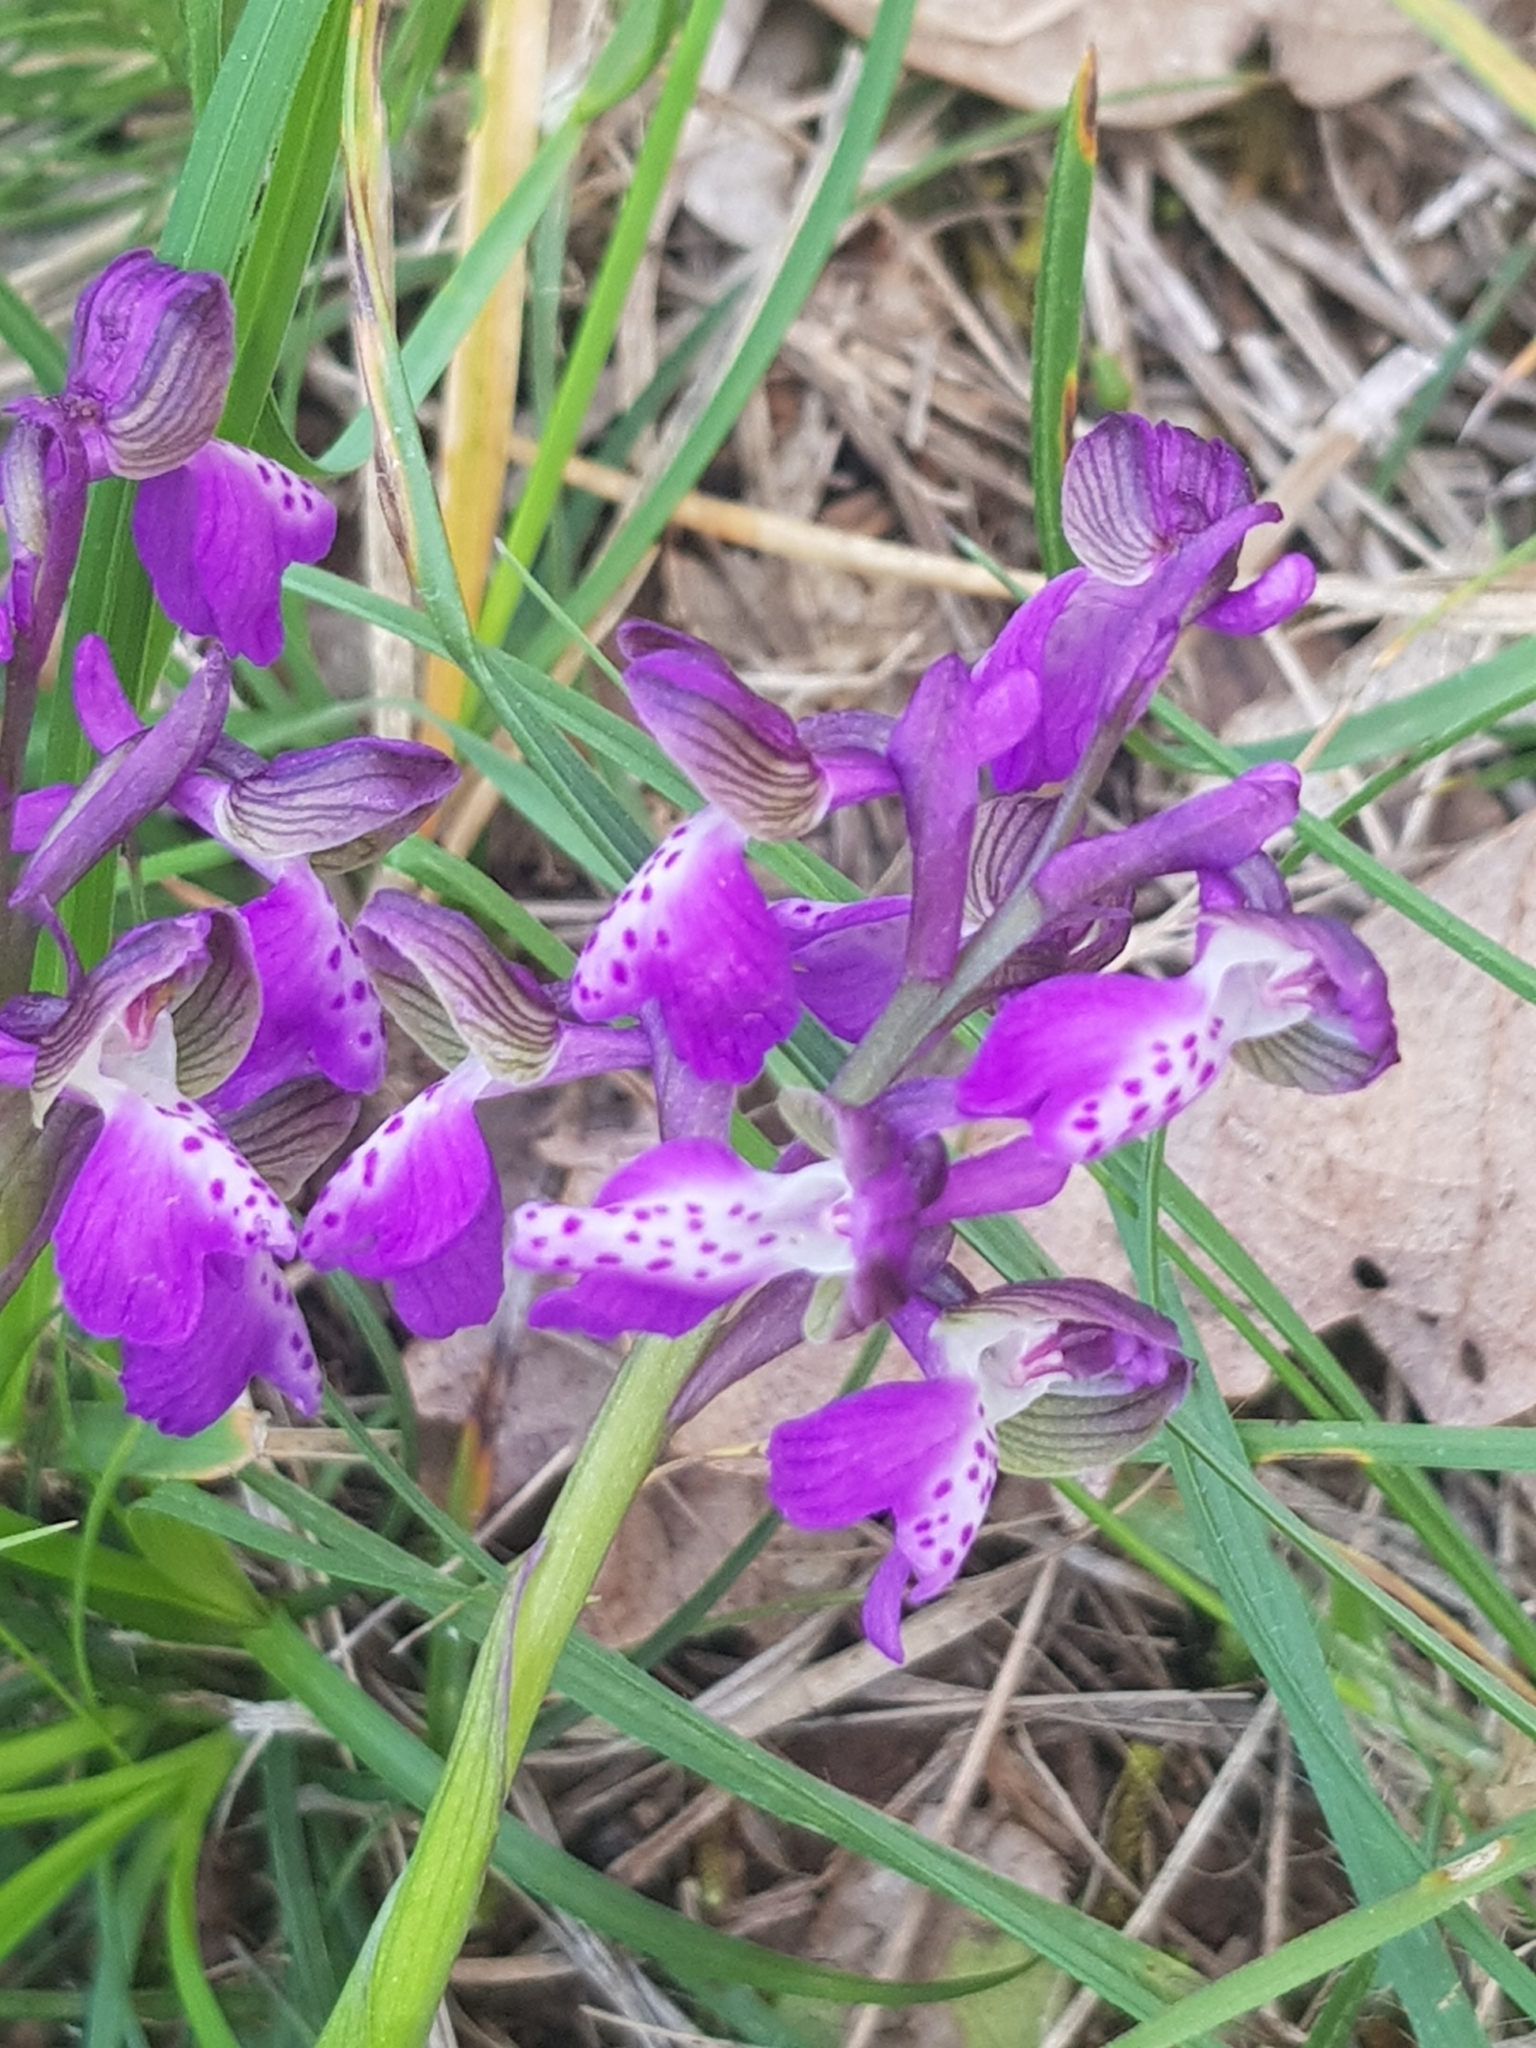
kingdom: Plantae
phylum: Tracheophyta
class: Liliopsida
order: Asparagales
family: Orchidaceae
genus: Anacamptis
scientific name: Anacamptis morio
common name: Green-winged orchid
